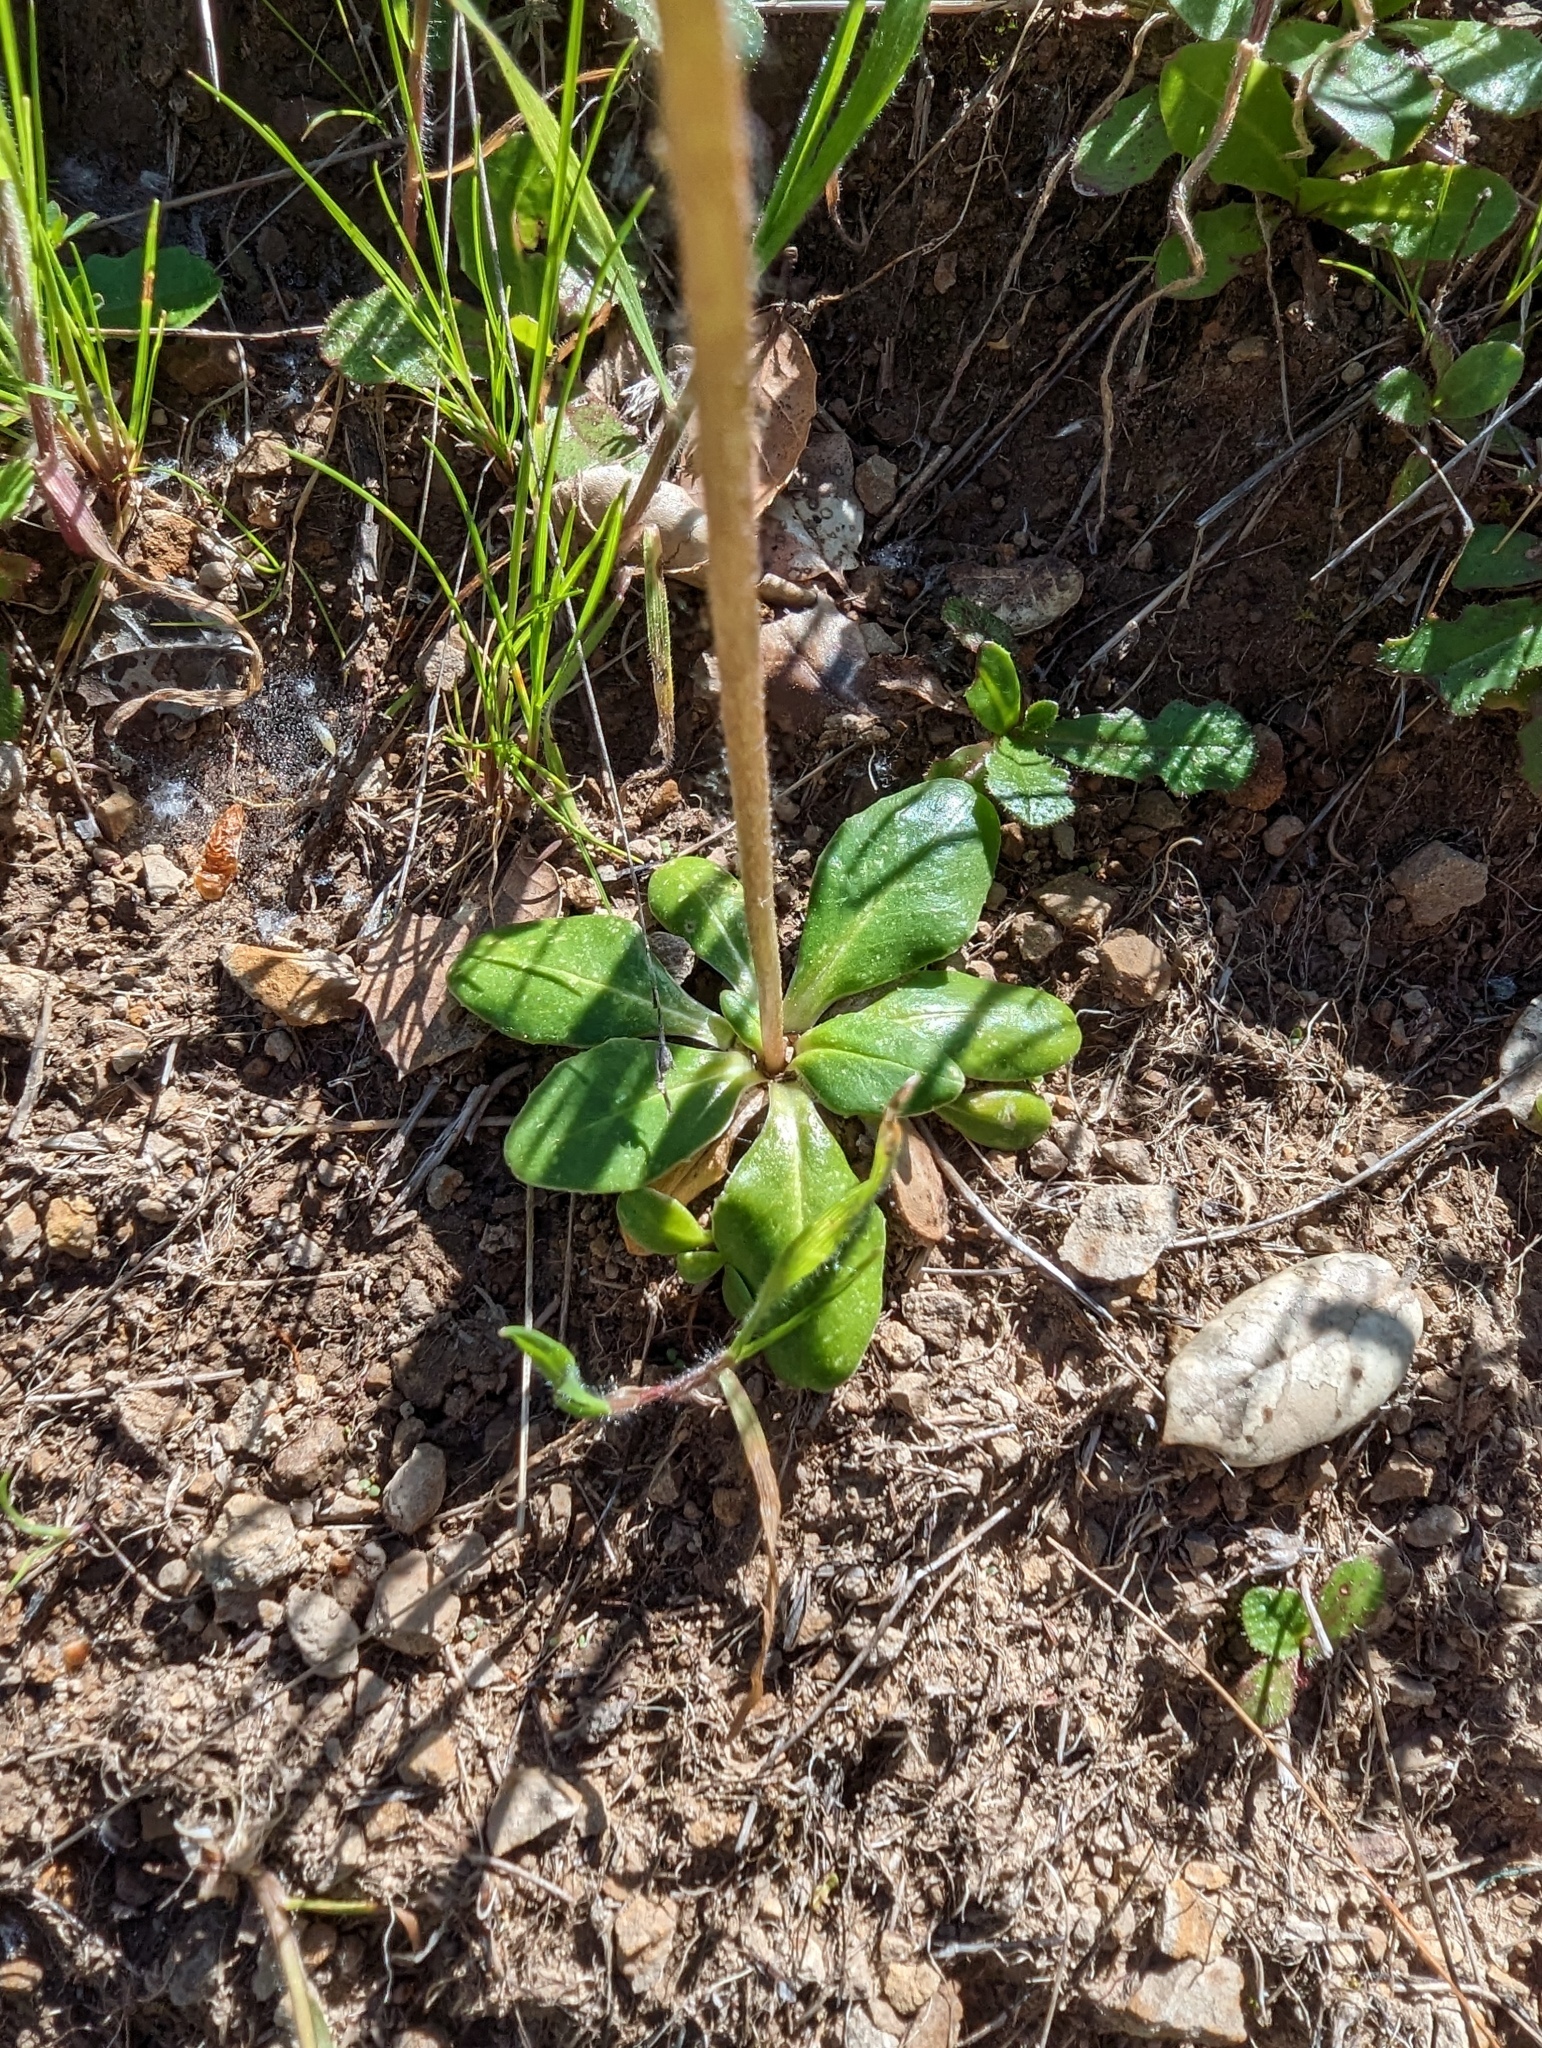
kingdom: Plantae
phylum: Tracheophyta
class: Magnoliopsida
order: Ericales
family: Primulaceae
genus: Dodecatheon
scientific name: Dodecatheon clevelandii
